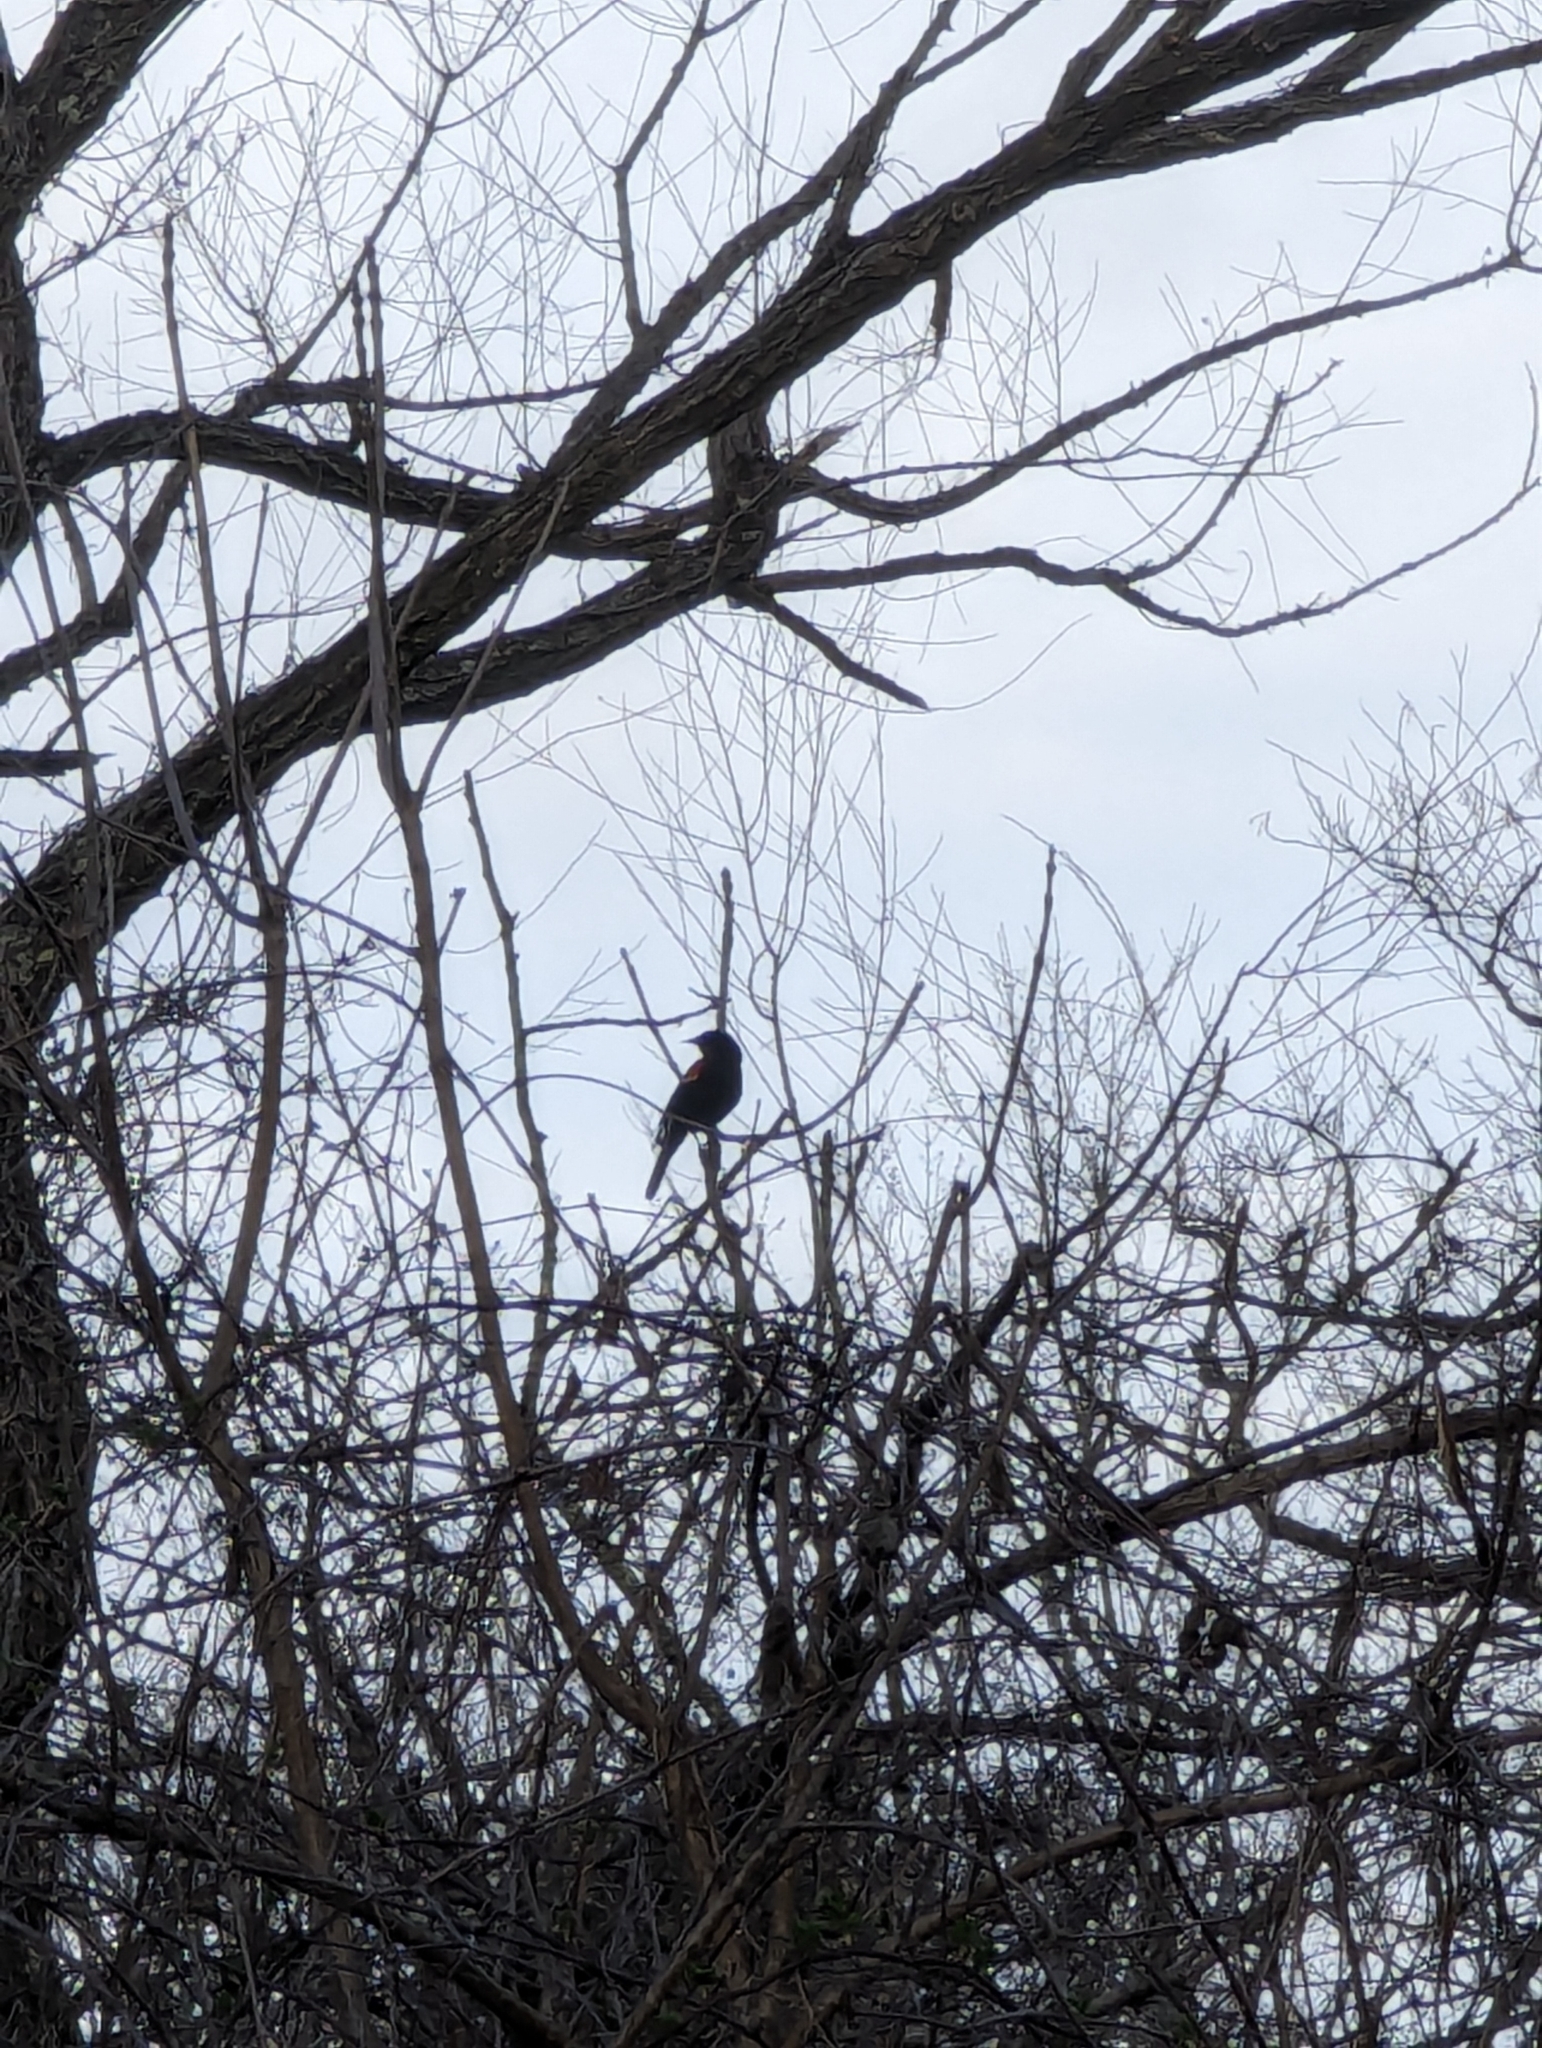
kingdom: Animalia
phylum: Chordata
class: Aves
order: Passeriformes
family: Icteridae
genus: Agelaius
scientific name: Agelaius phoeniceus
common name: Red-winged blackbird
